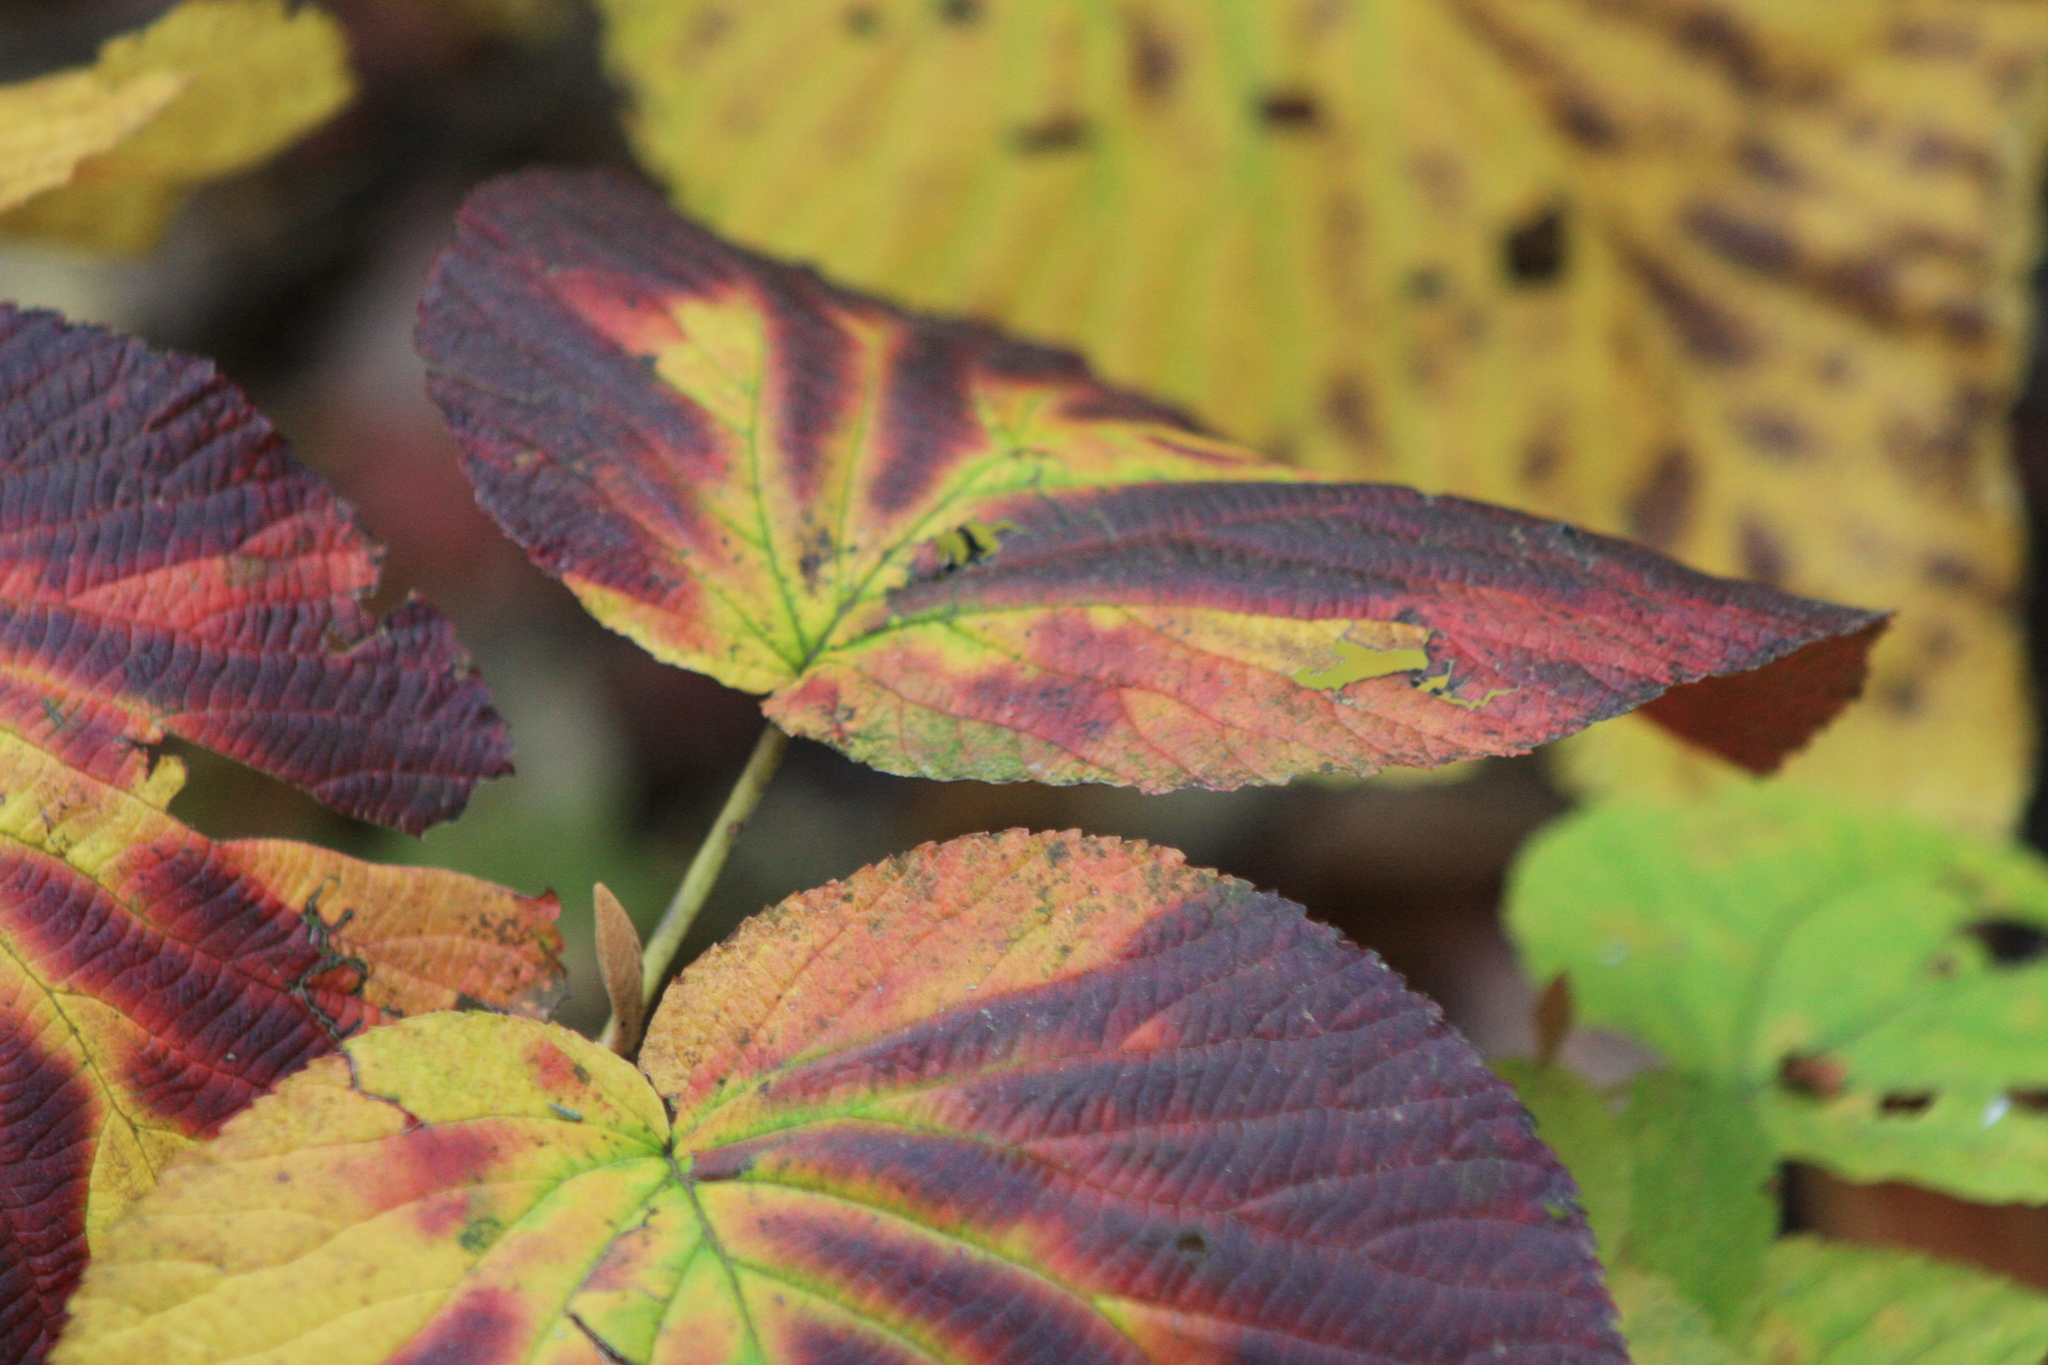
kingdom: Plantae
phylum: Tracheophyta
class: Magnoliopsida
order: Dipsacales
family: Viburnaceae
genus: Viburnum
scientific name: Viburnum lantanoides
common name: Hobblebush
